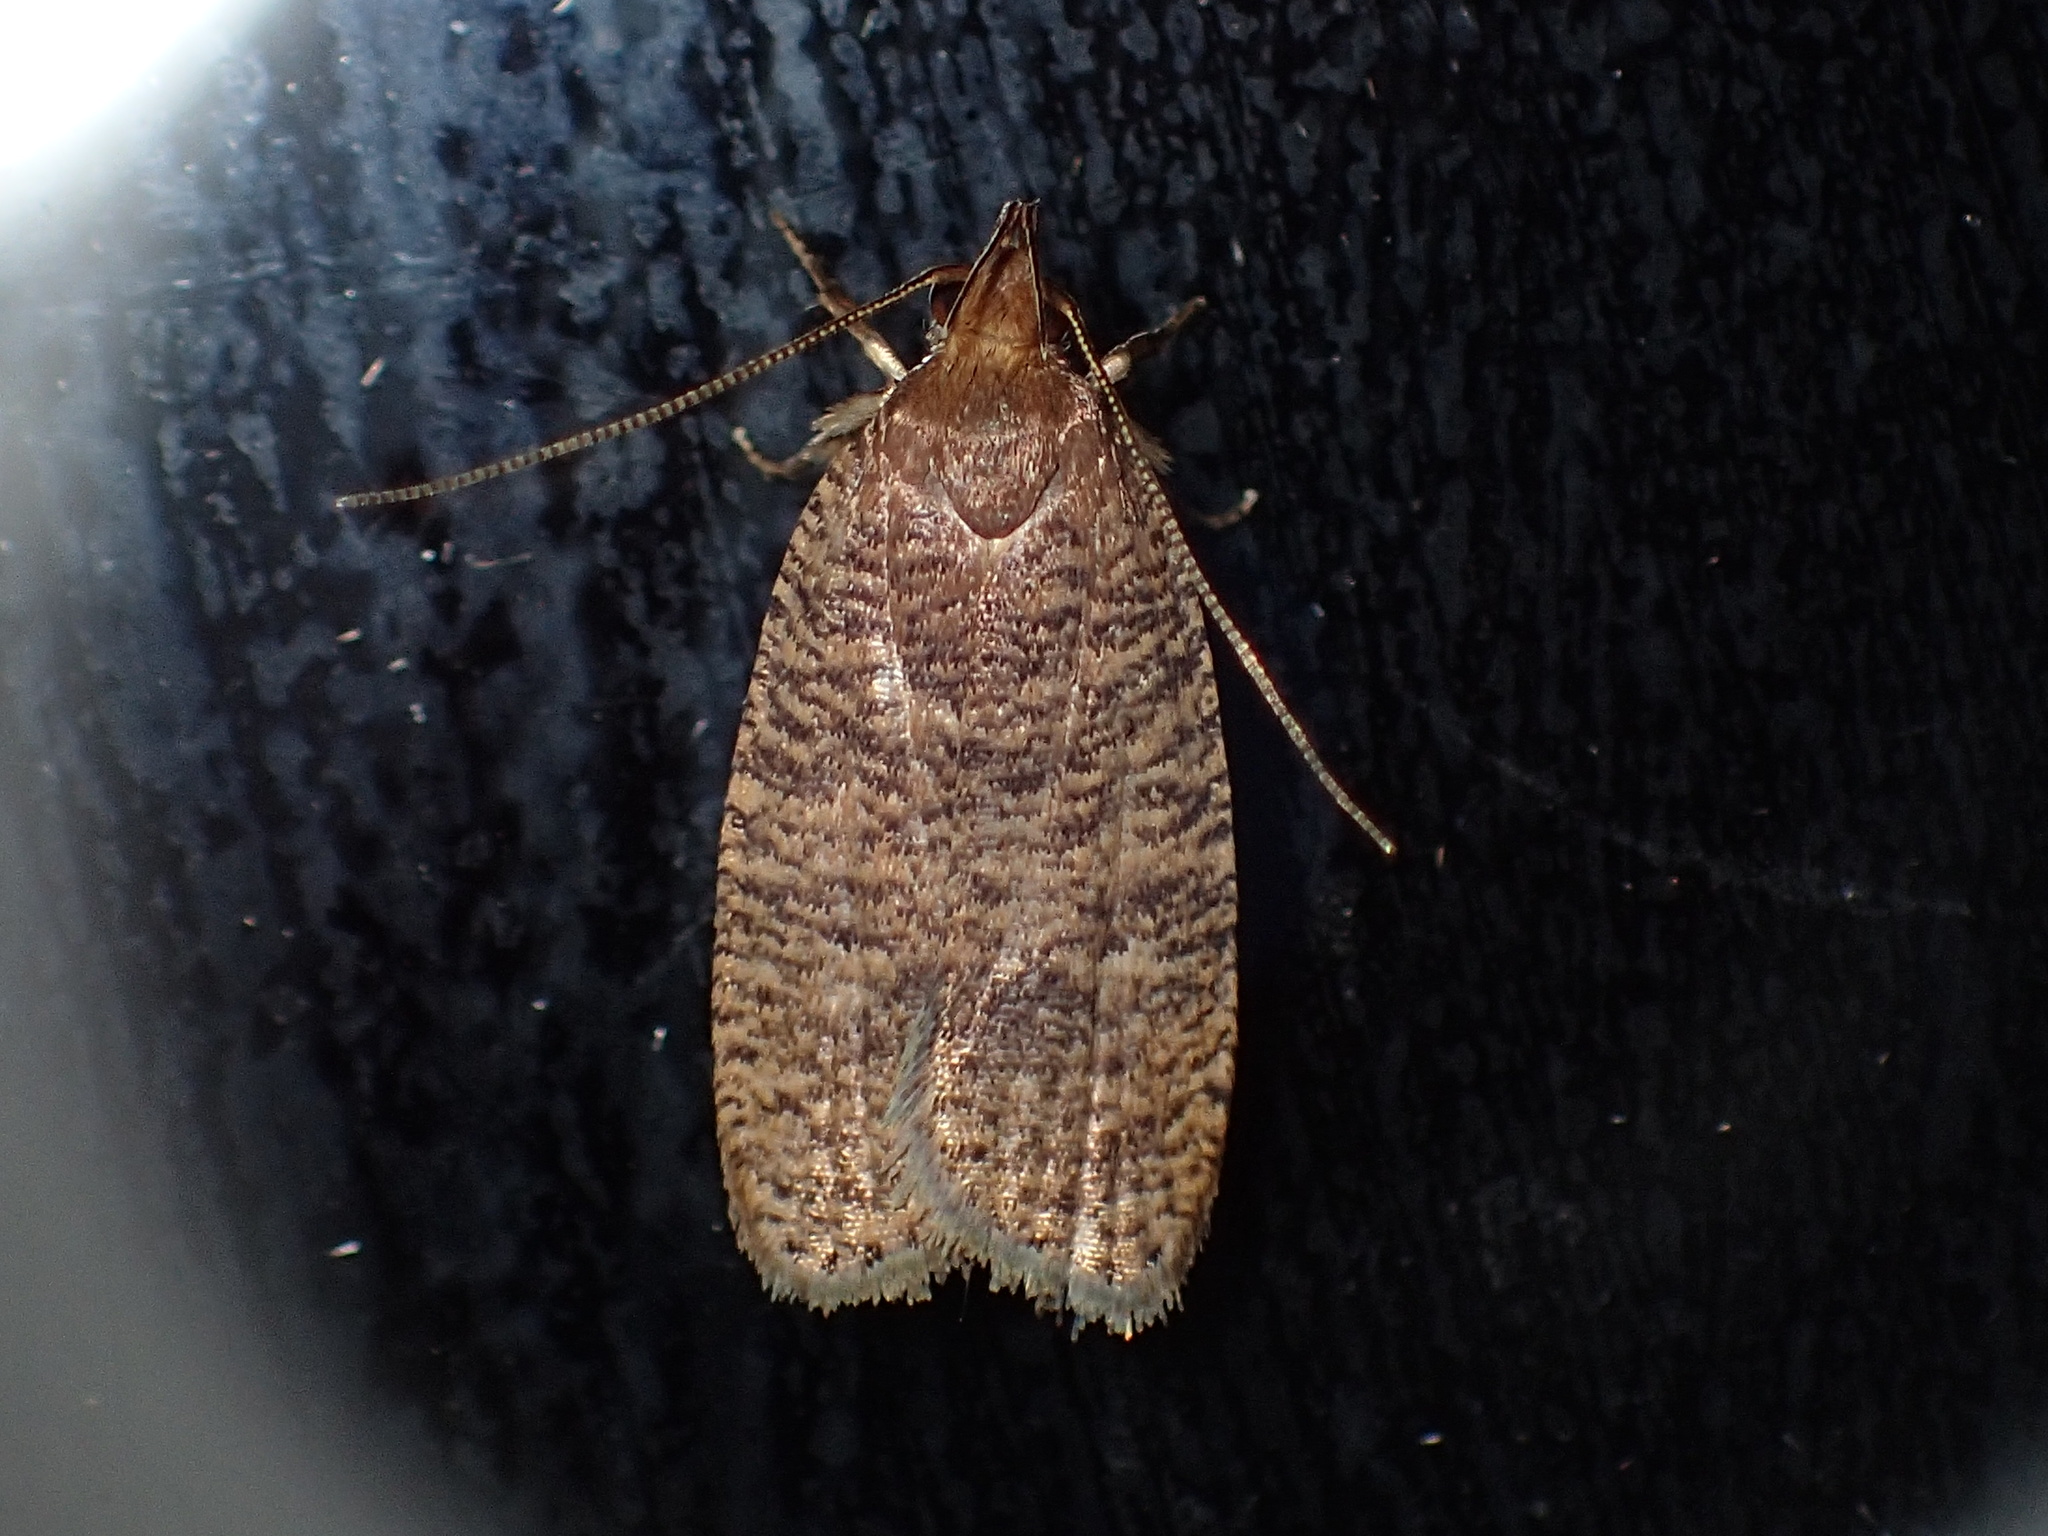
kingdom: Animalia
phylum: Arthropoda
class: Insecta
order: Lepidoptera
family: Depressariidae
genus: Psilocorsis
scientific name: Psilocorsis reflexella
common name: Dotted leaftier moth
